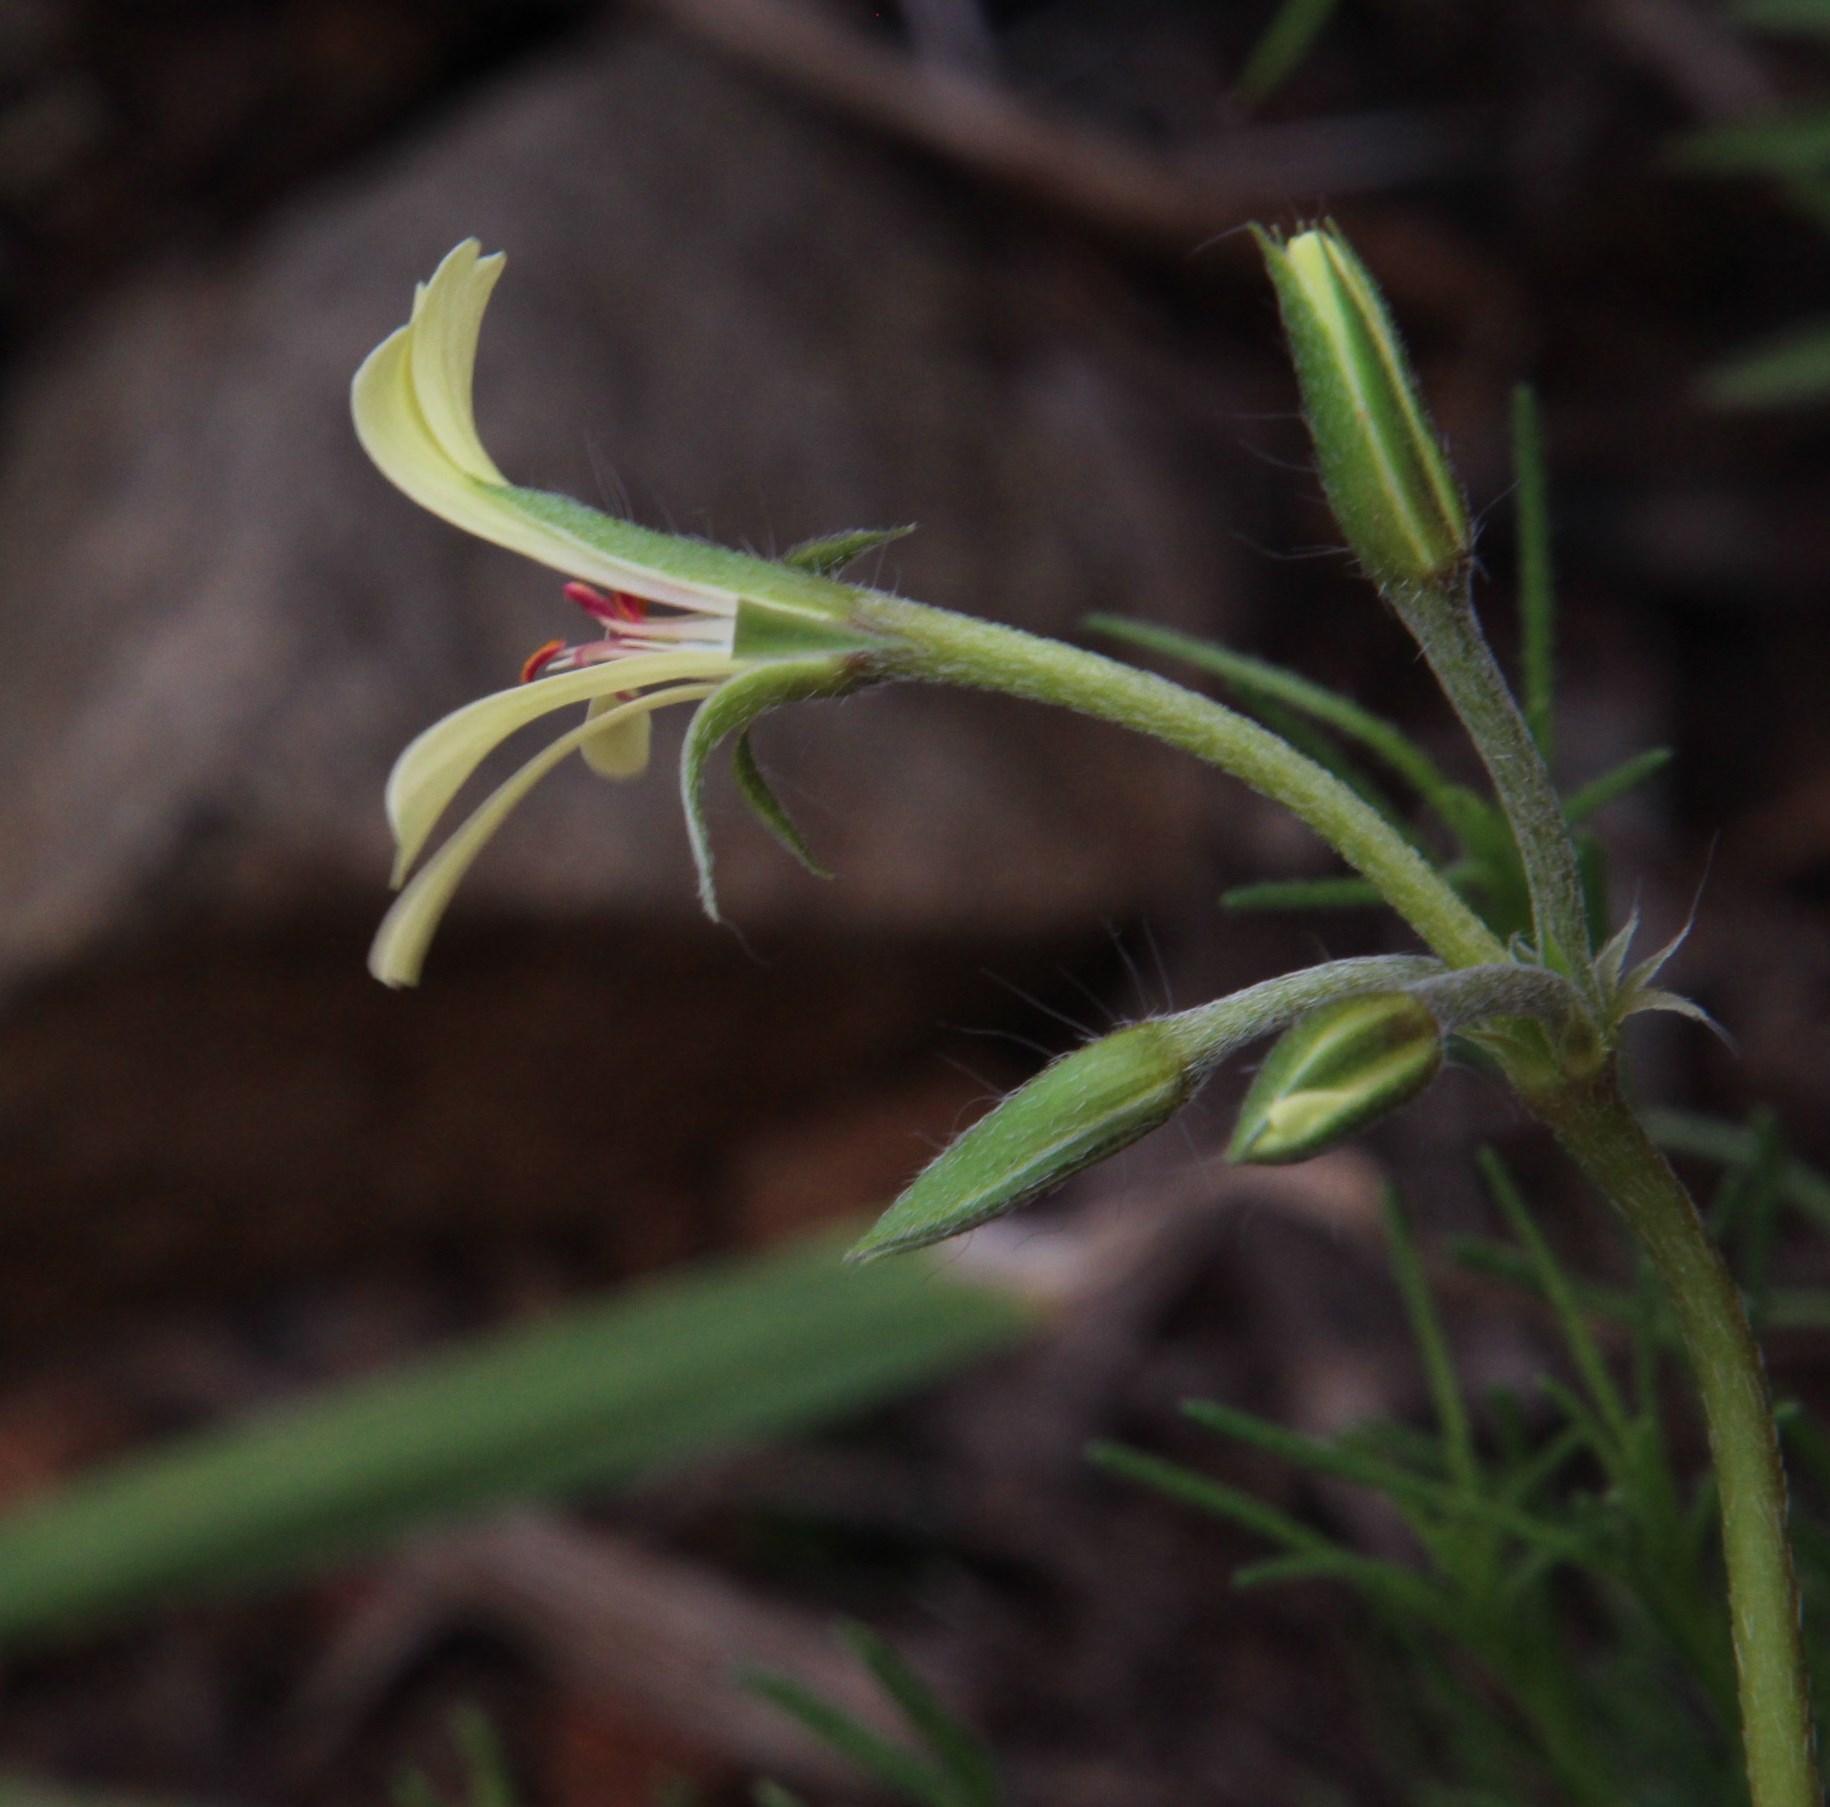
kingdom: Plantae
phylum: Tracheophyta
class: Magnoliopsida
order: Geraniales
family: Geraniaceae
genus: Pelargonium
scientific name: Pelargonium aridum
